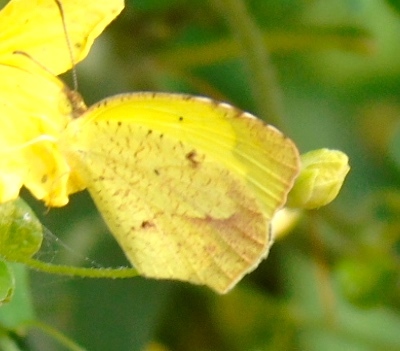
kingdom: Animalia
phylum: Arthropoda
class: Insecta
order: Lepidoptera
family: Pieridae
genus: Abaeis
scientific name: Abaeis boisduvaliana
